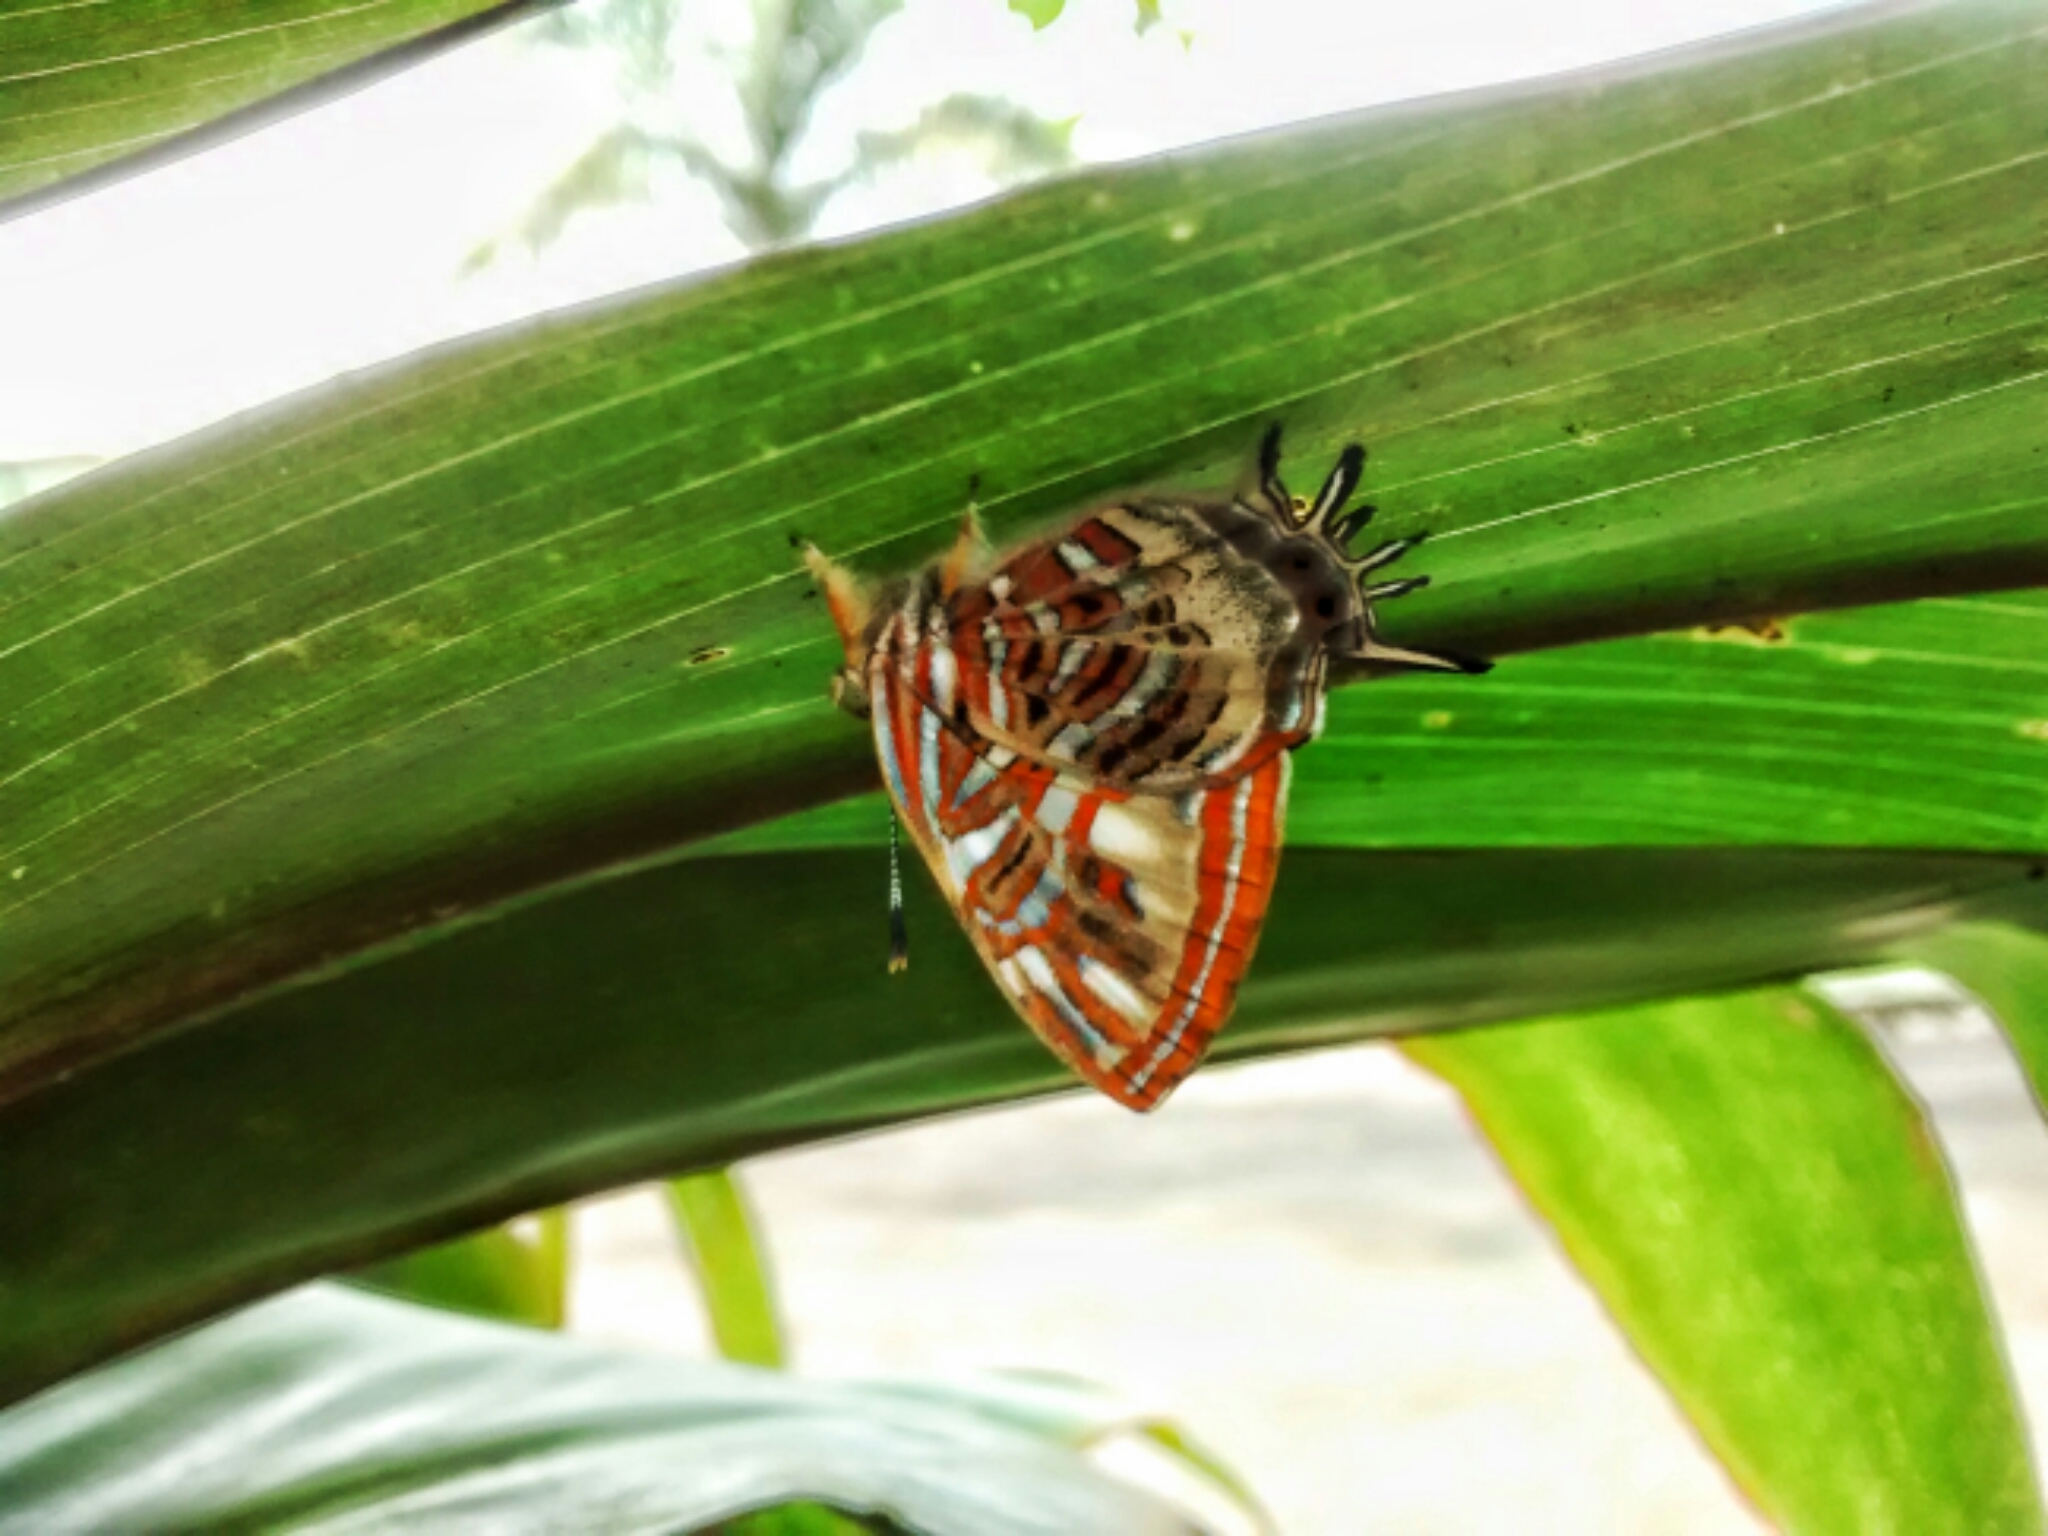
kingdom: Animalia
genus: Charis
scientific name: Charis Sarota chrysus
